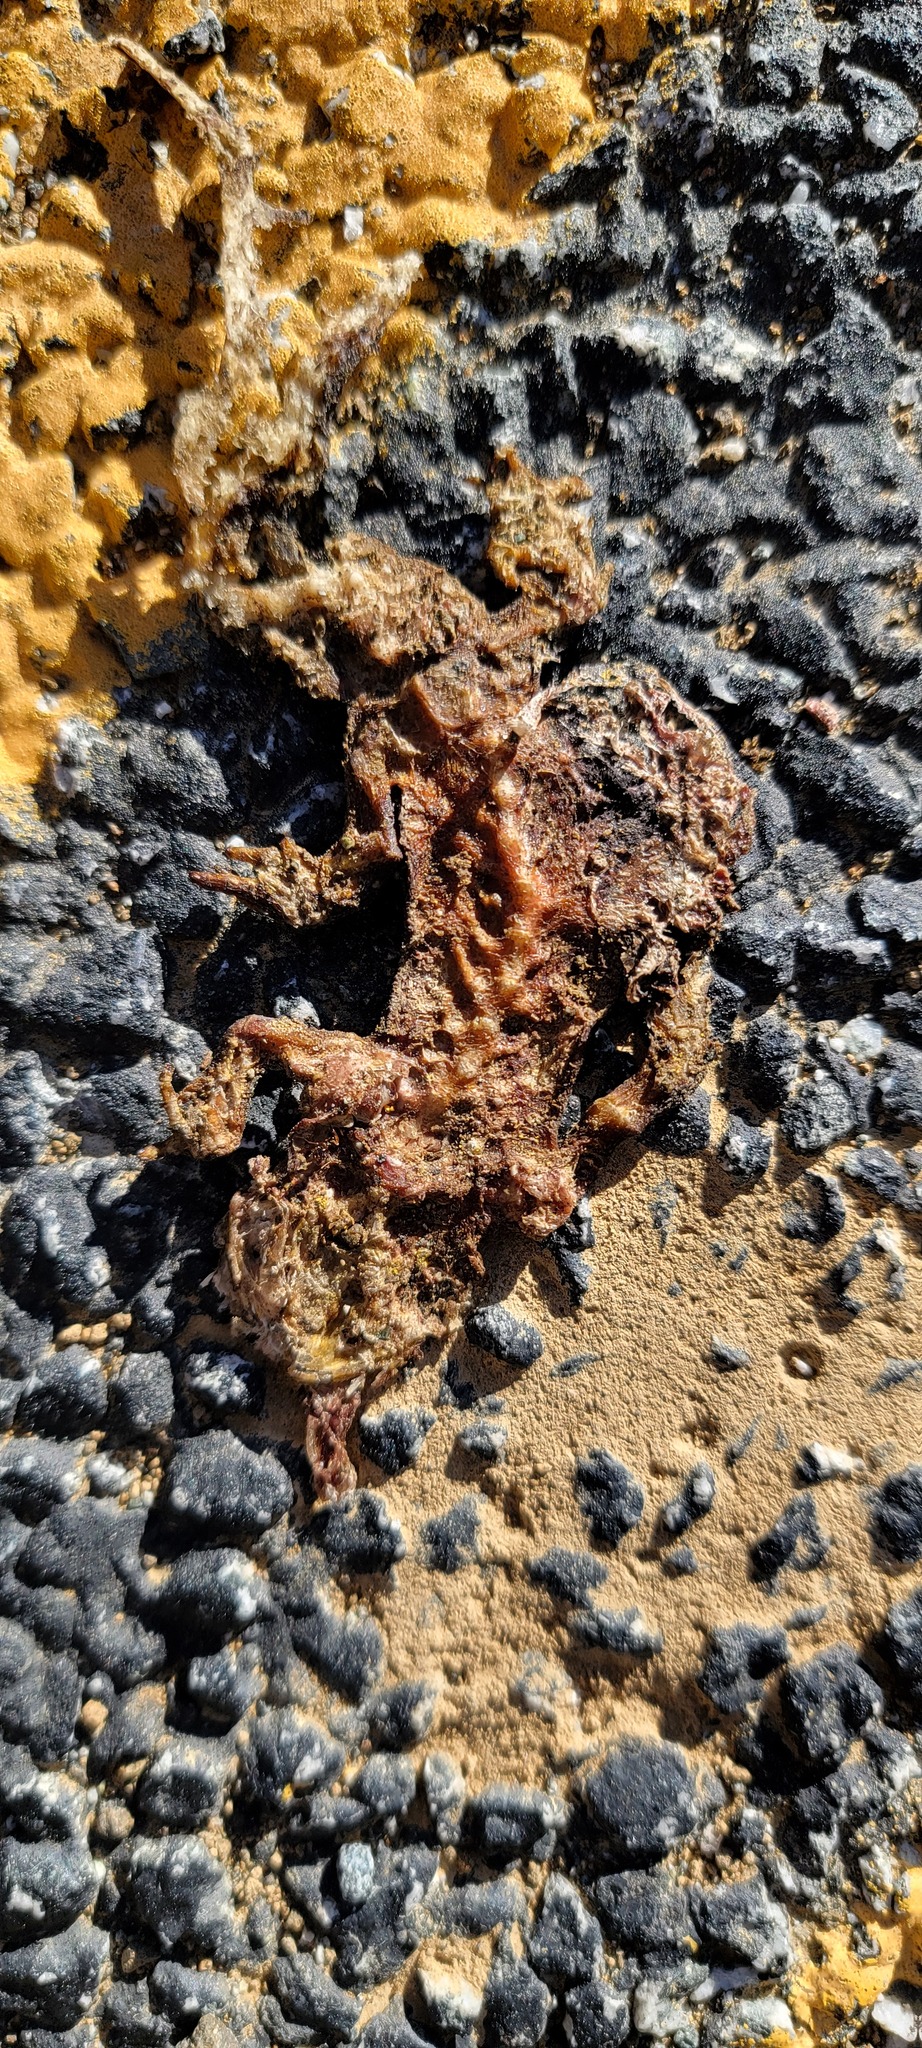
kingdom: Animalia
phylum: Chordata
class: Amphibia
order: Caudata
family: Salamandridae
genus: Taricha
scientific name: Taricha
